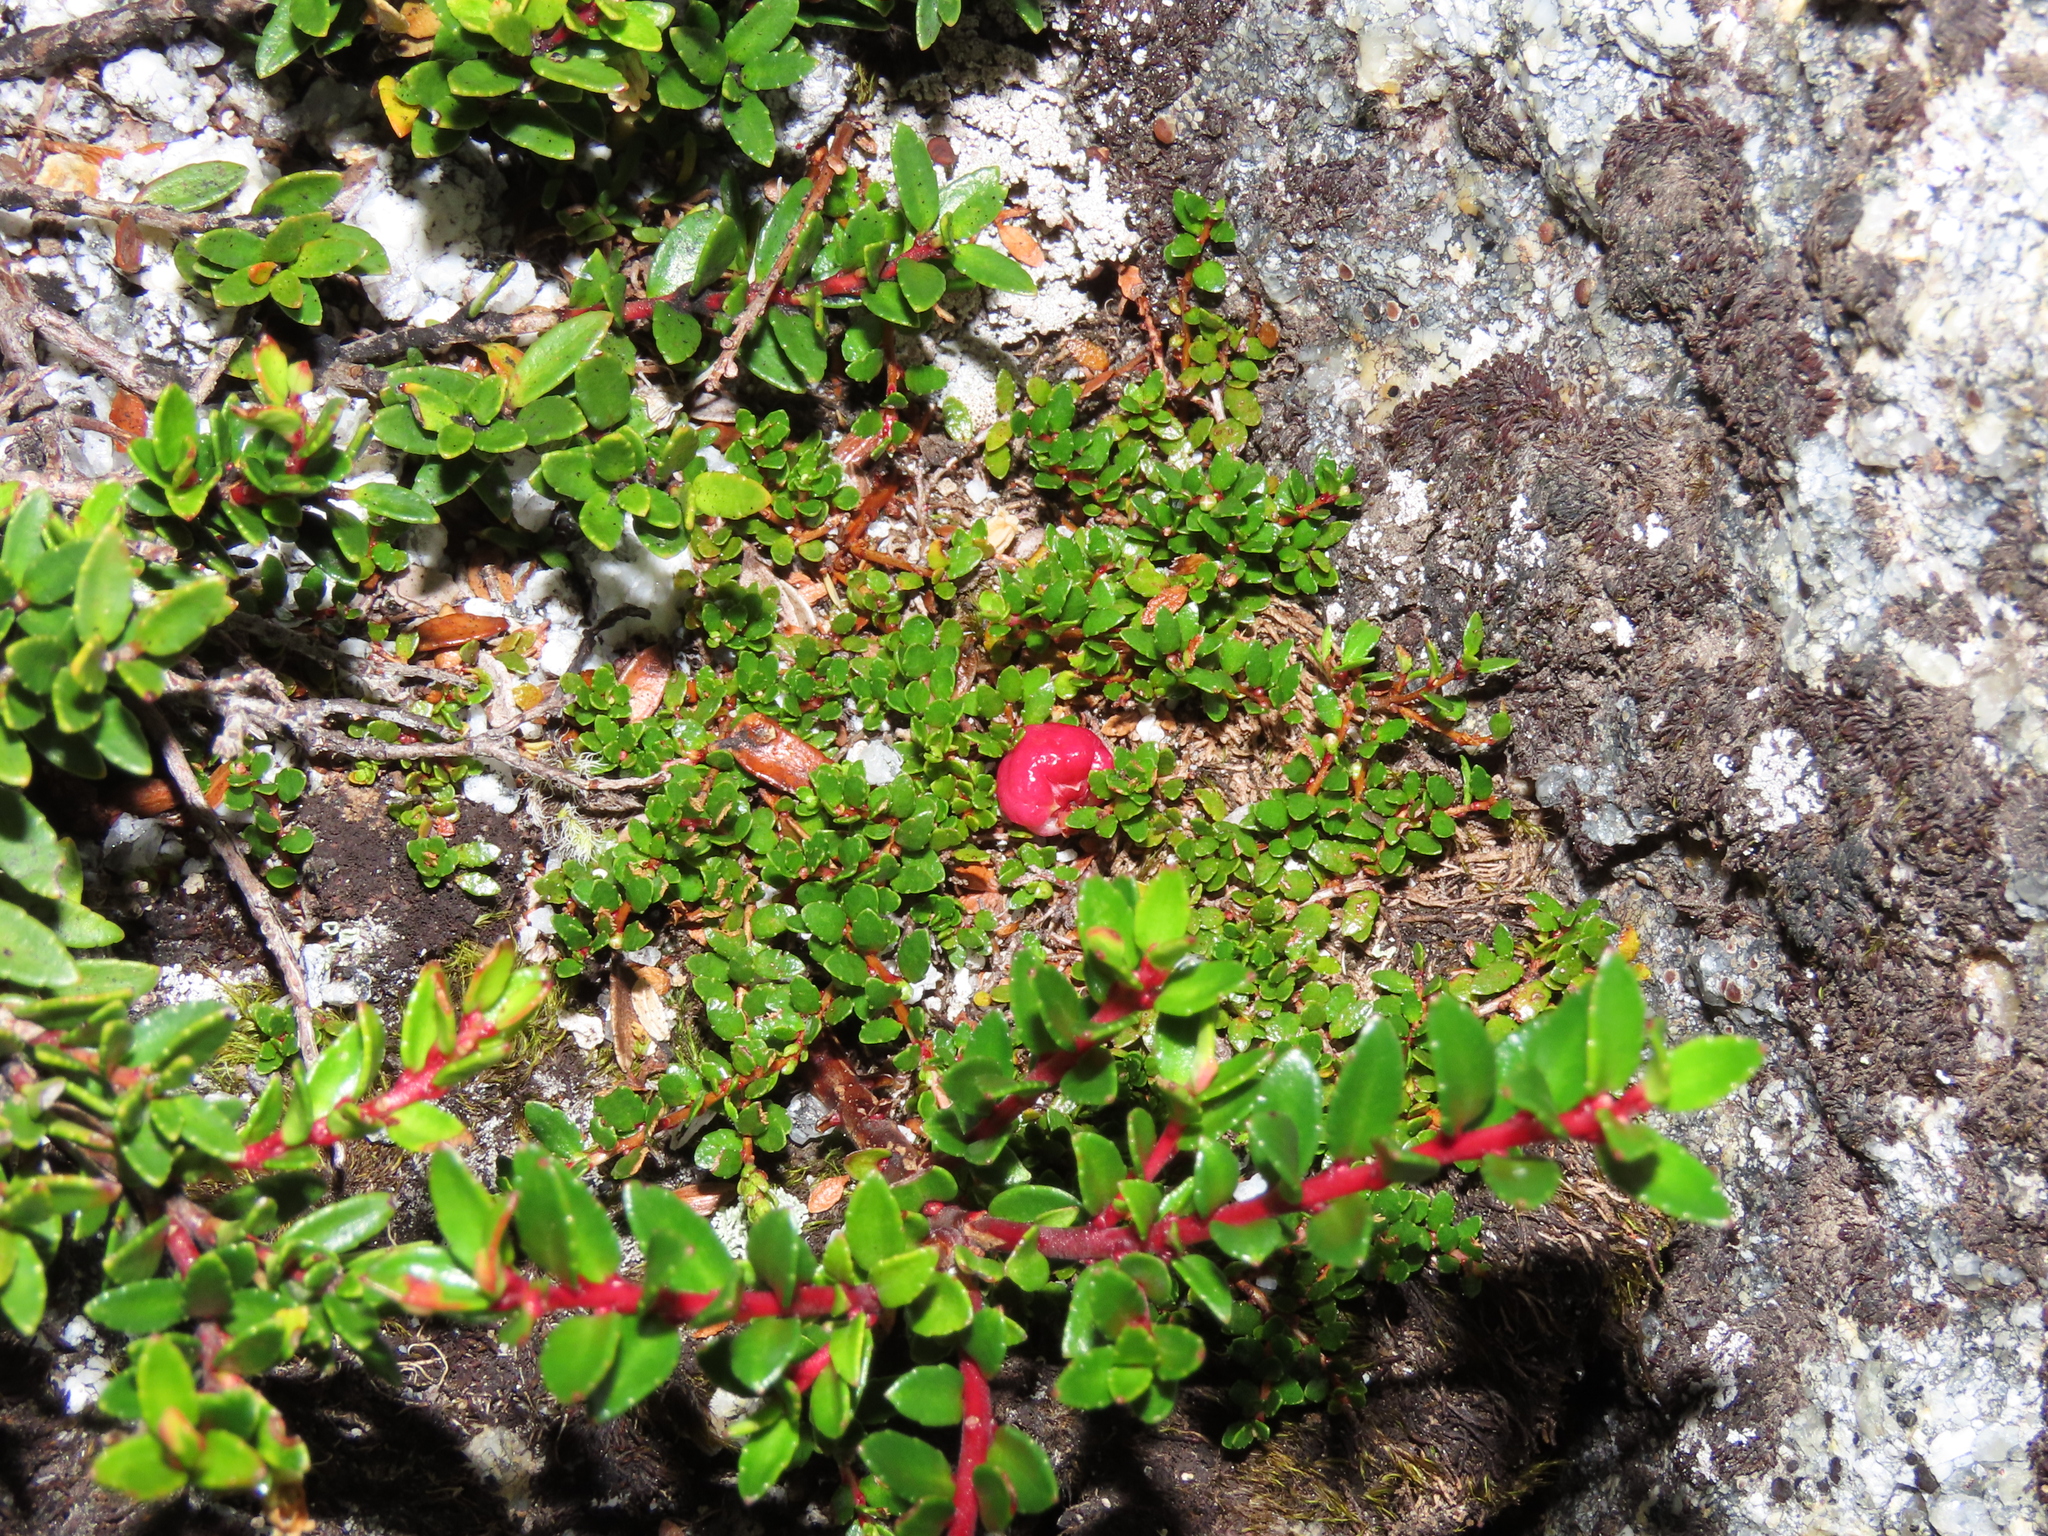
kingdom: Plantae
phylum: Tracheophyta
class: Magnoliopsida
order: Ericales
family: Ericaceae
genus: Gaultheria
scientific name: Gaultheria antarctica
